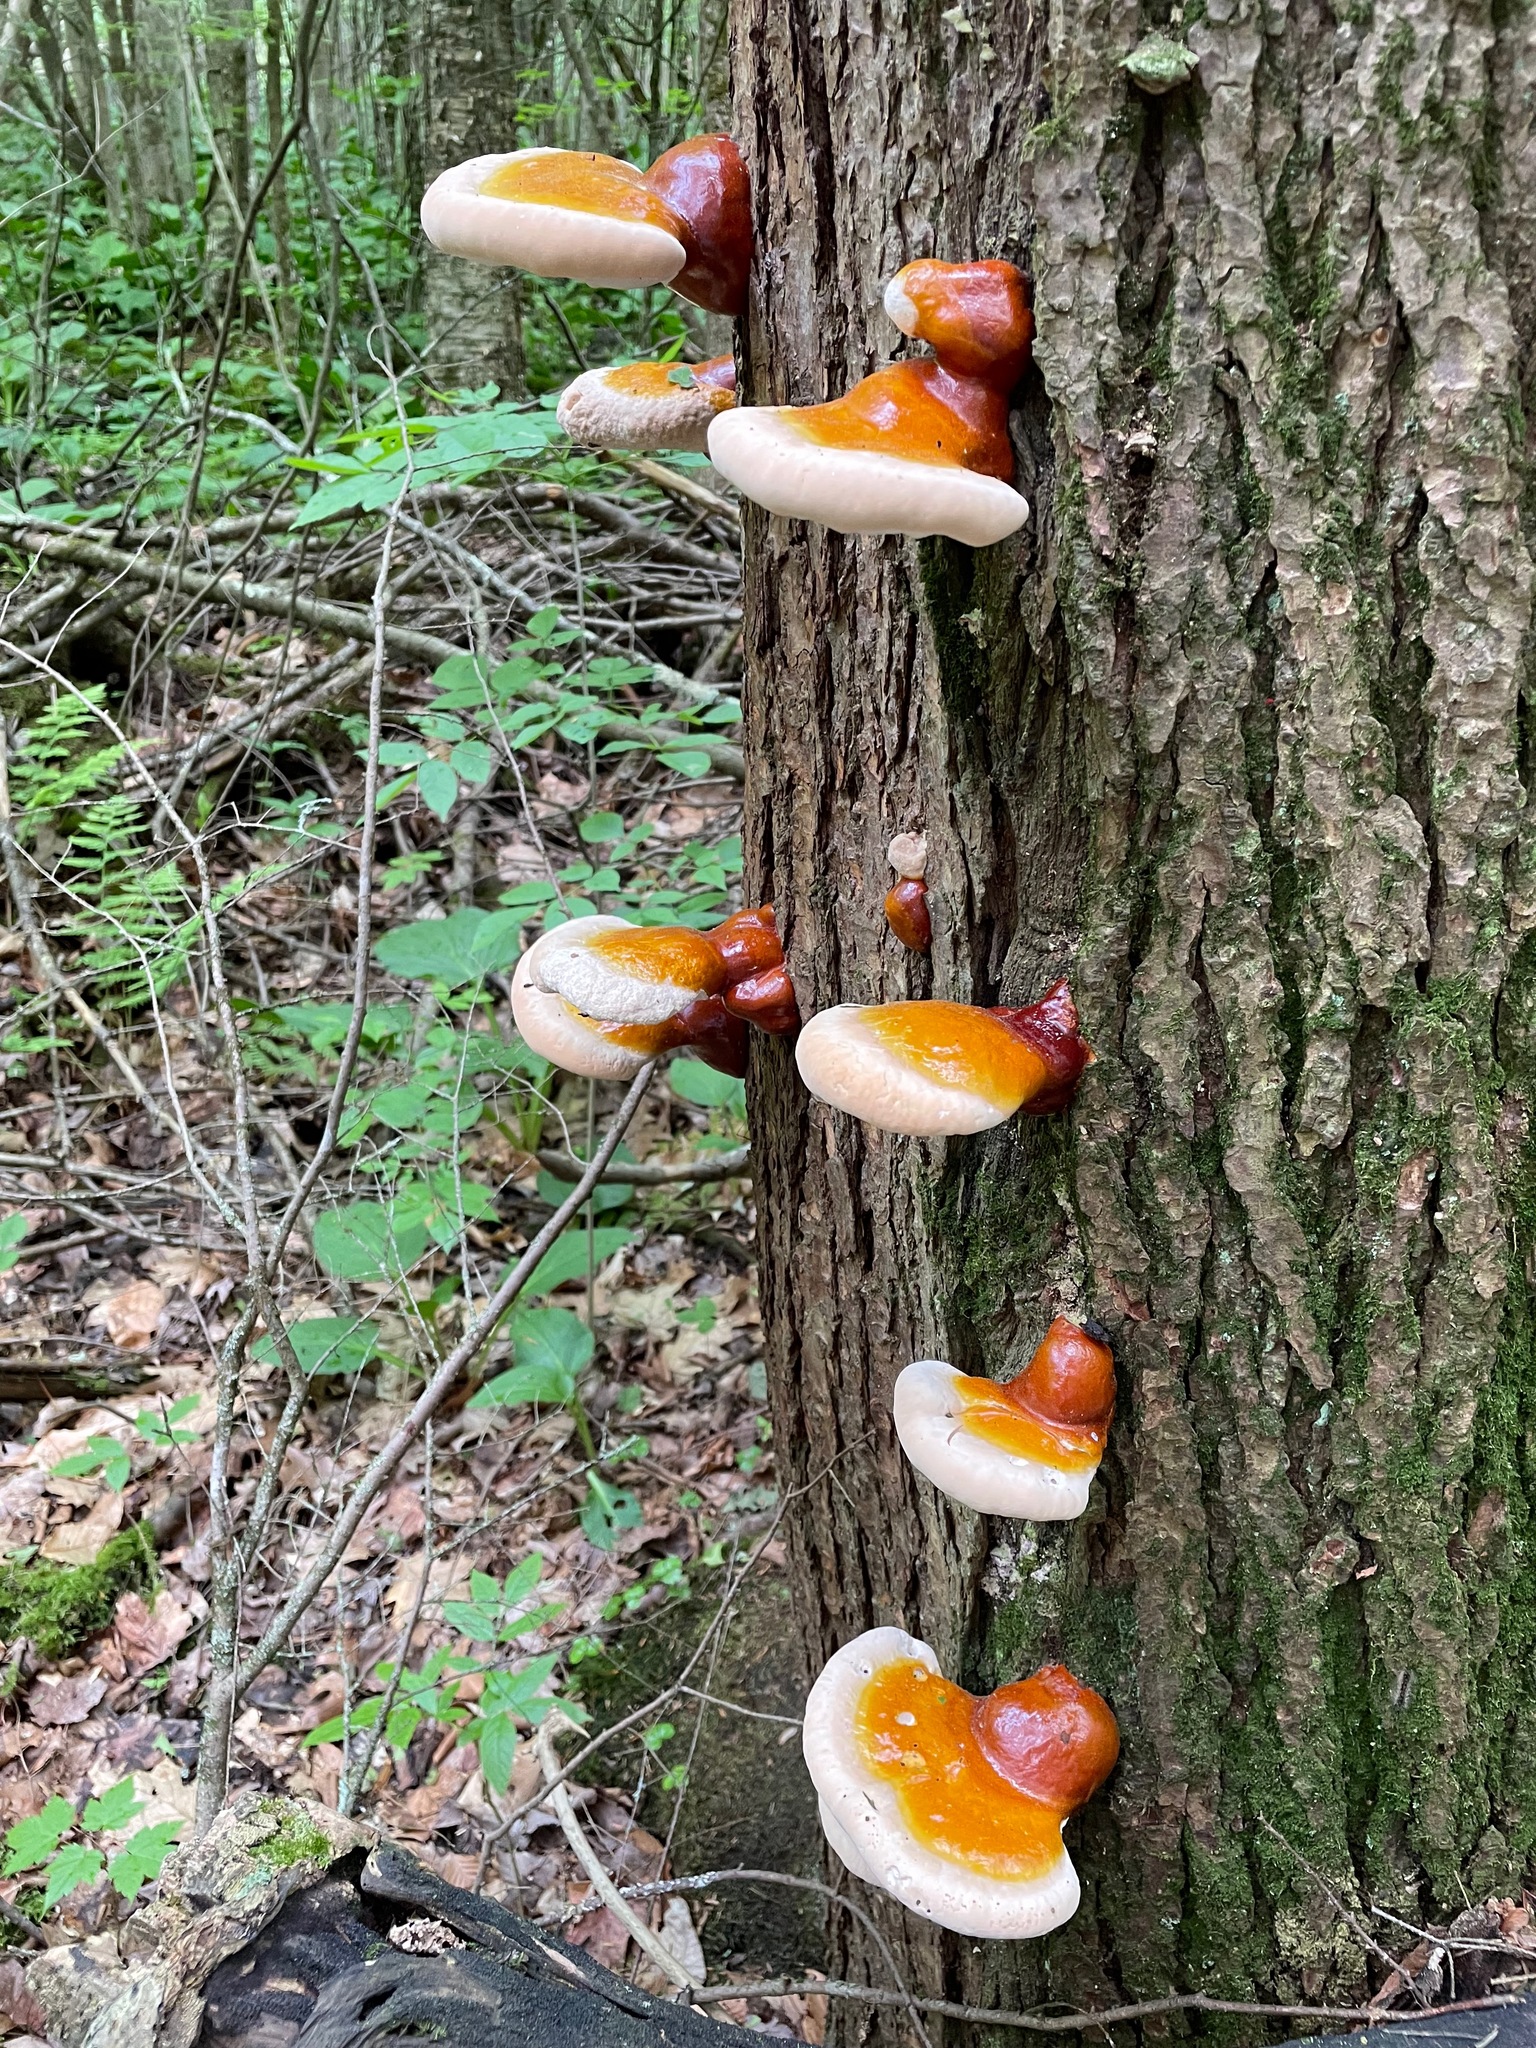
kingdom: Fungi
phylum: Basidiomycota
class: Agaricomycetes
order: Polyporales
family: Polyporaceae
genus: Ganoderma
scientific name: Ganoderma tsugae
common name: Hemlock varnish shelf
